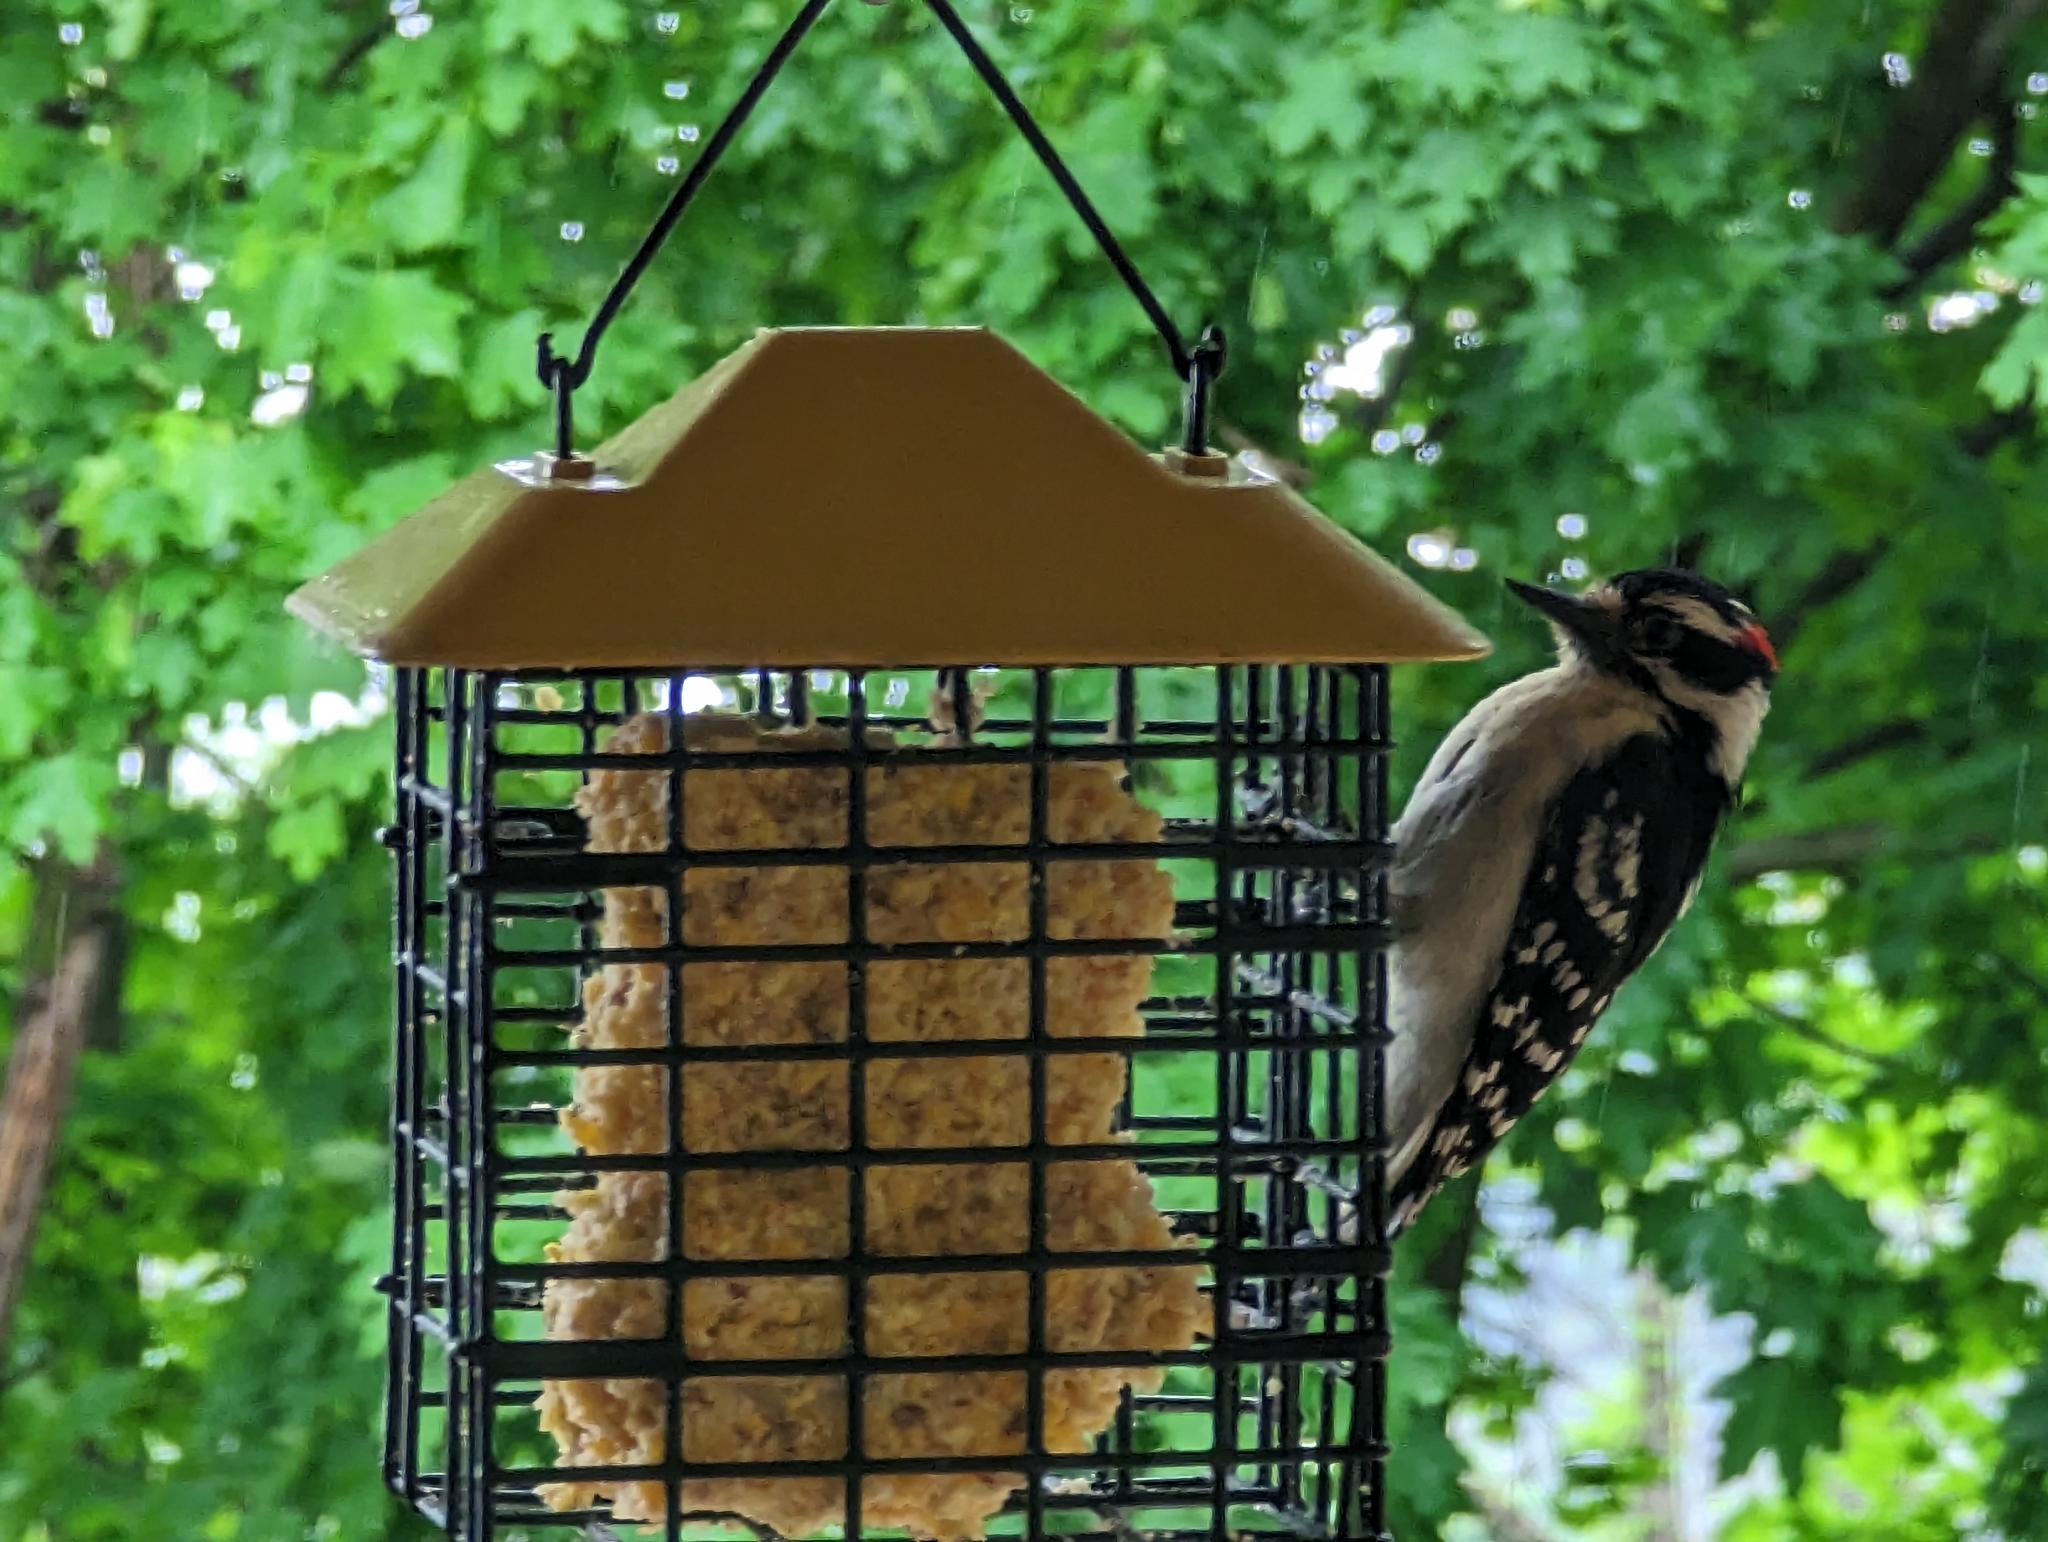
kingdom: Animalia
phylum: Chordata
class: Aves
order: Piciformes
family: Picidae
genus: Dryobates
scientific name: Dryobates pubescens
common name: Downy woodpecker
